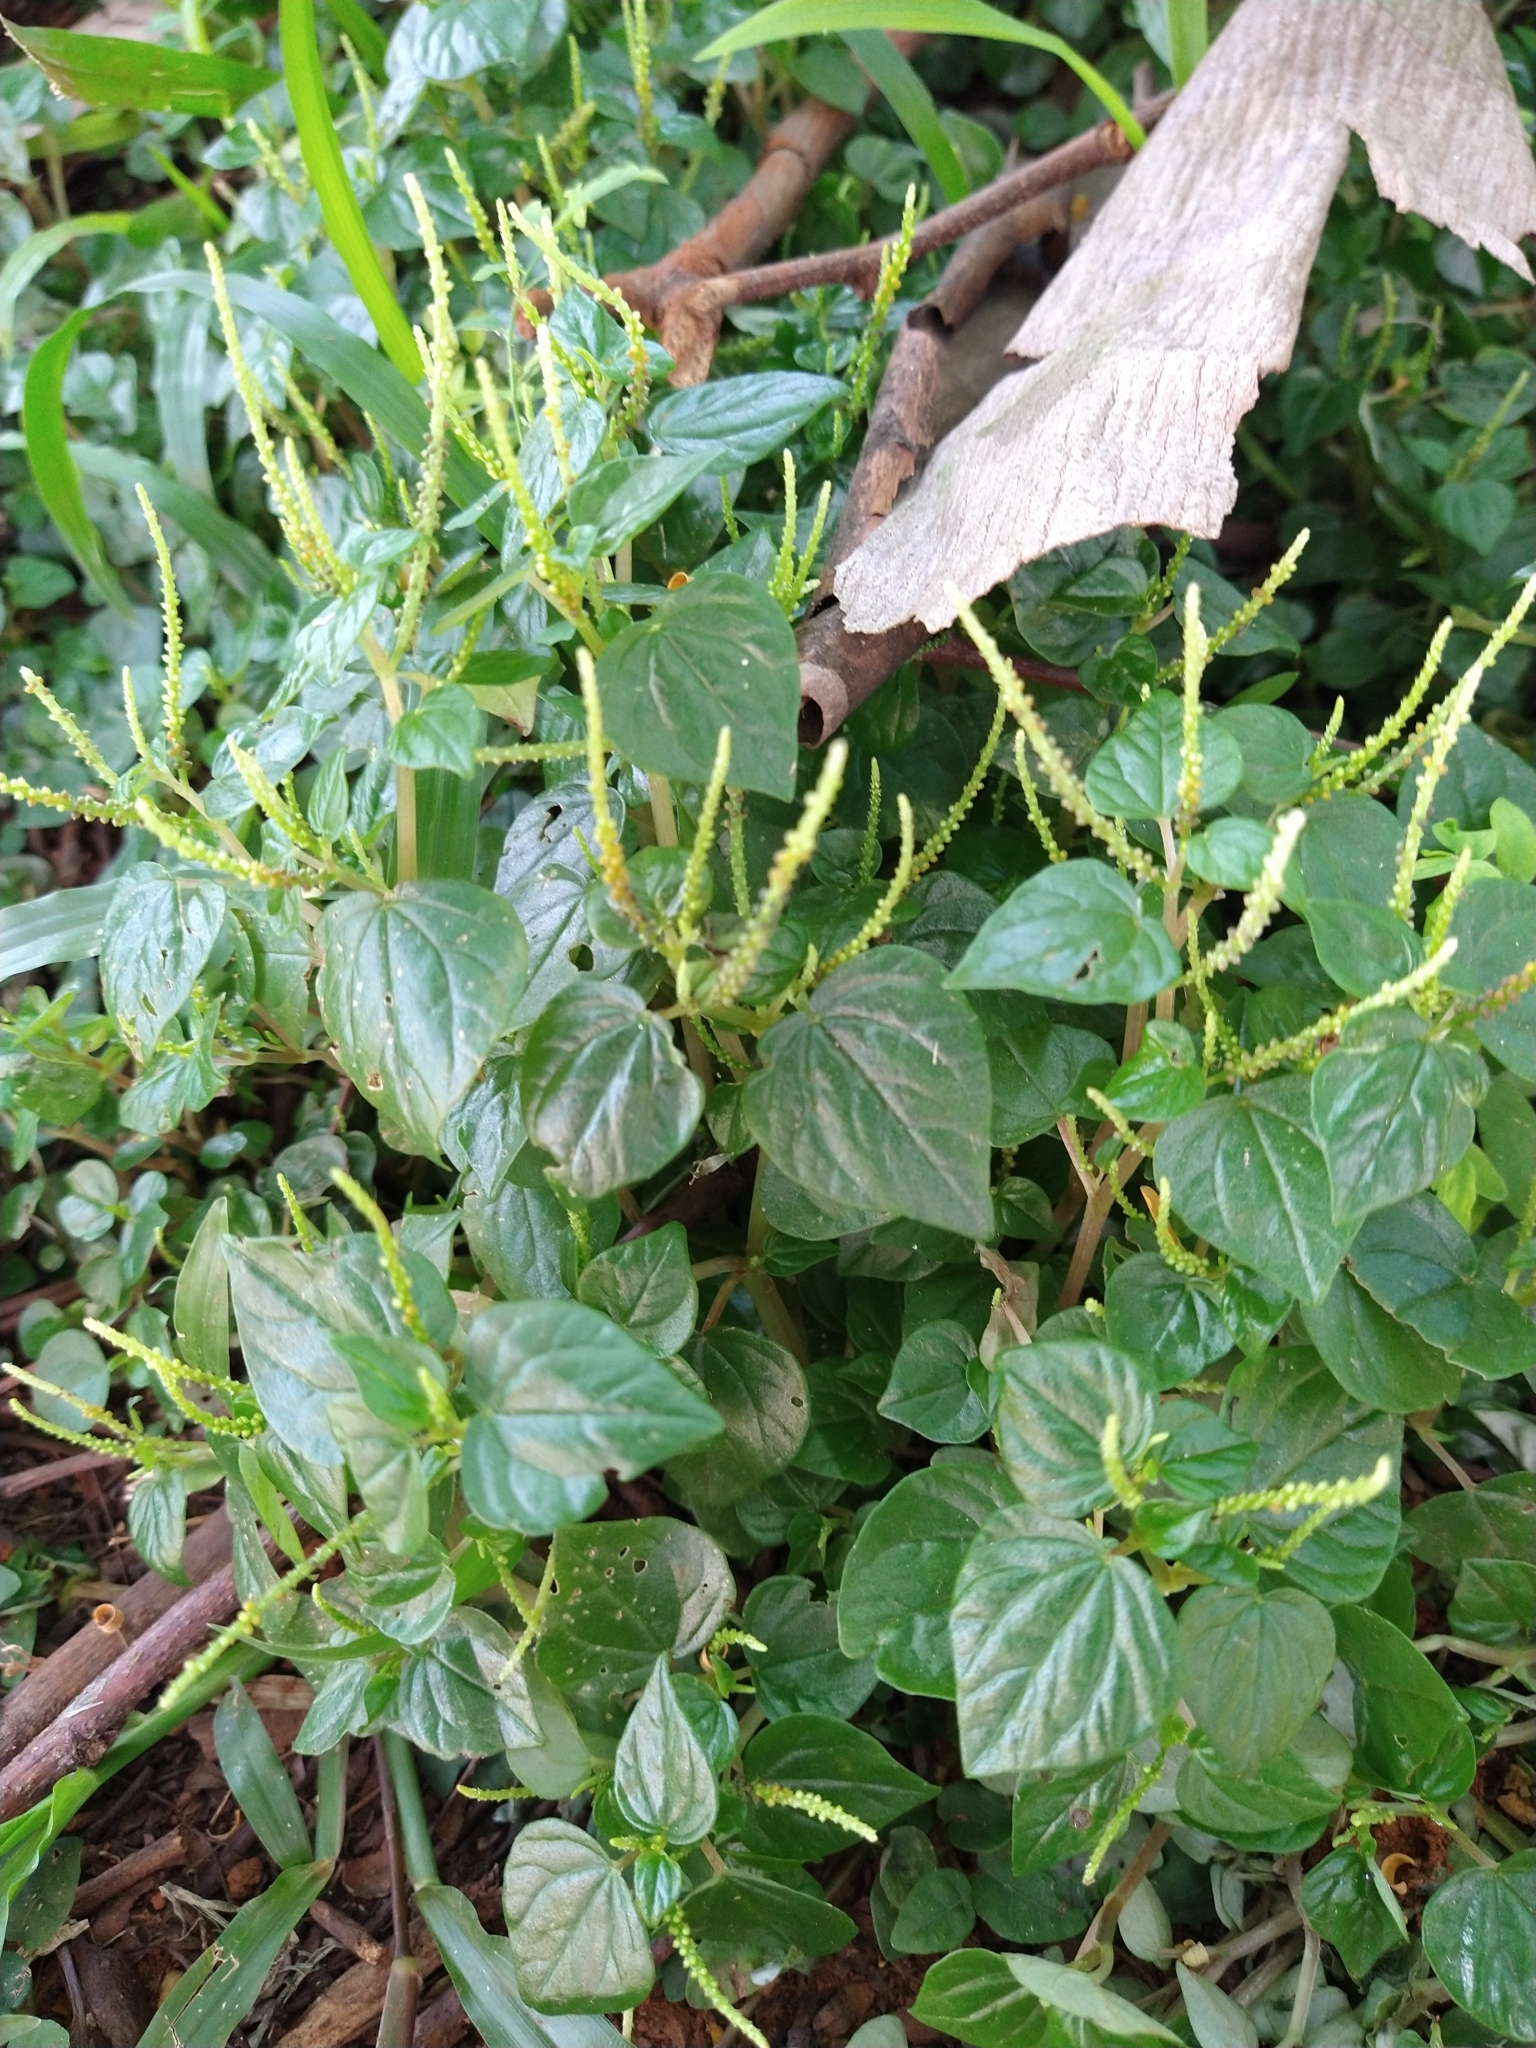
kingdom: Plantae
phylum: Tracheophyta
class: Magnoliopsida
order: Piperales
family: Piperaceae
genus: Peperomia
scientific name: Peperomia pellucida
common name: Man to man
